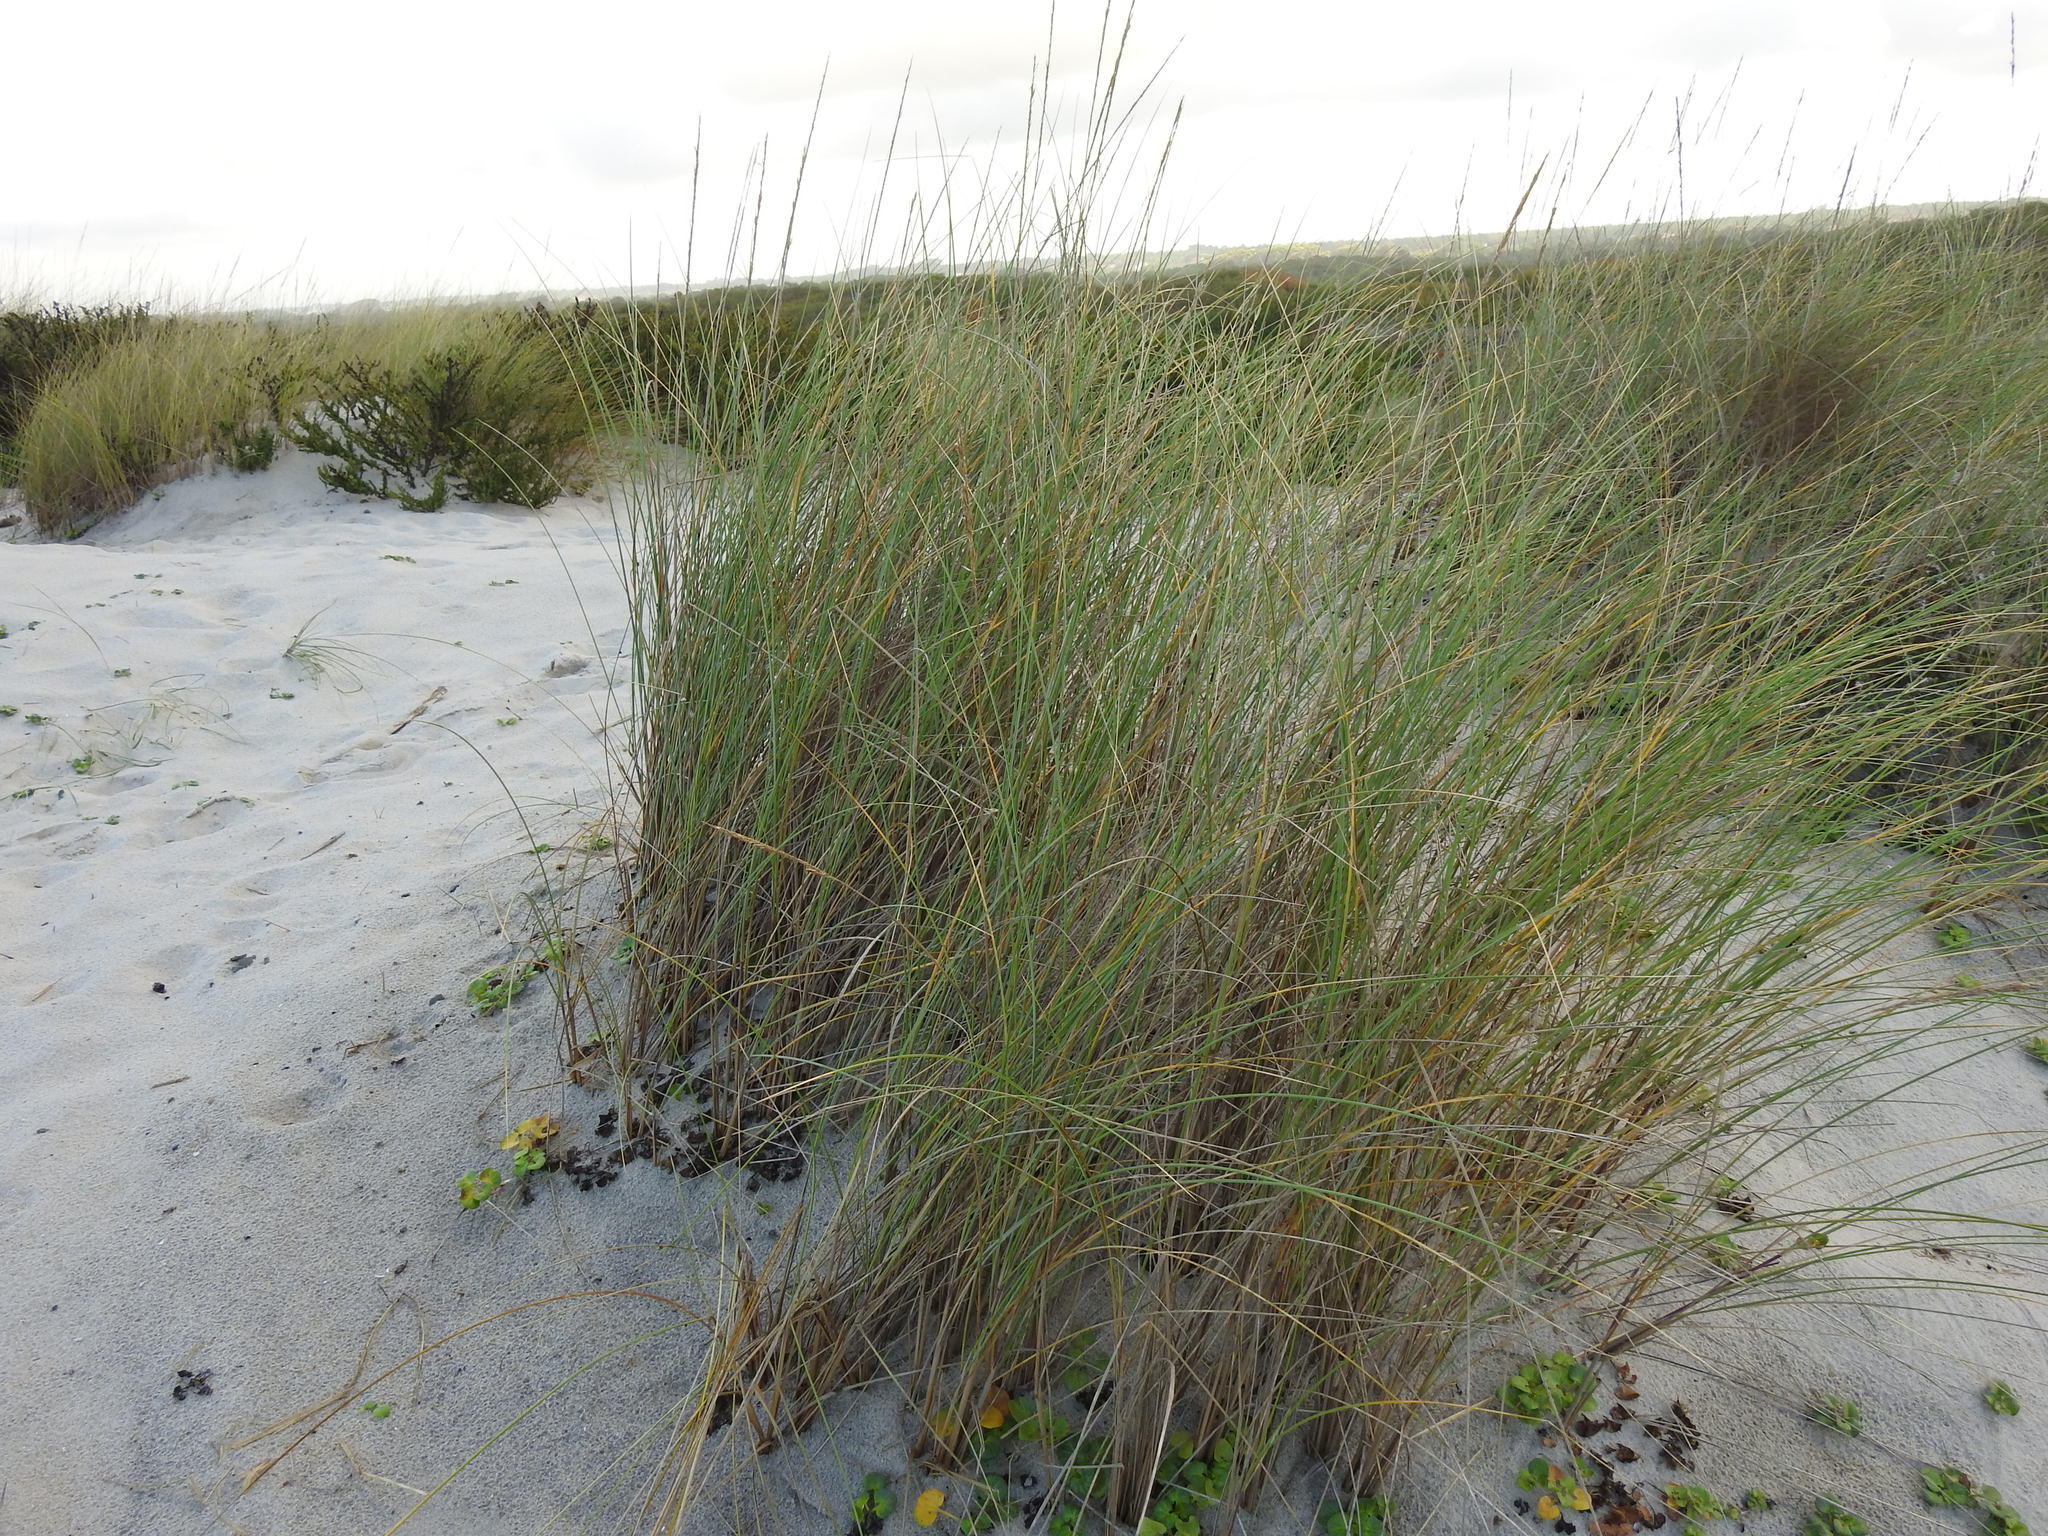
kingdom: Plantae
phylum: Tracheophyta
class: Liliopsida
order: Poales
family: Poaceae
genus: Calamagrostis
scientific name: Calamagrostis arenaria
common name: European beachgrass
